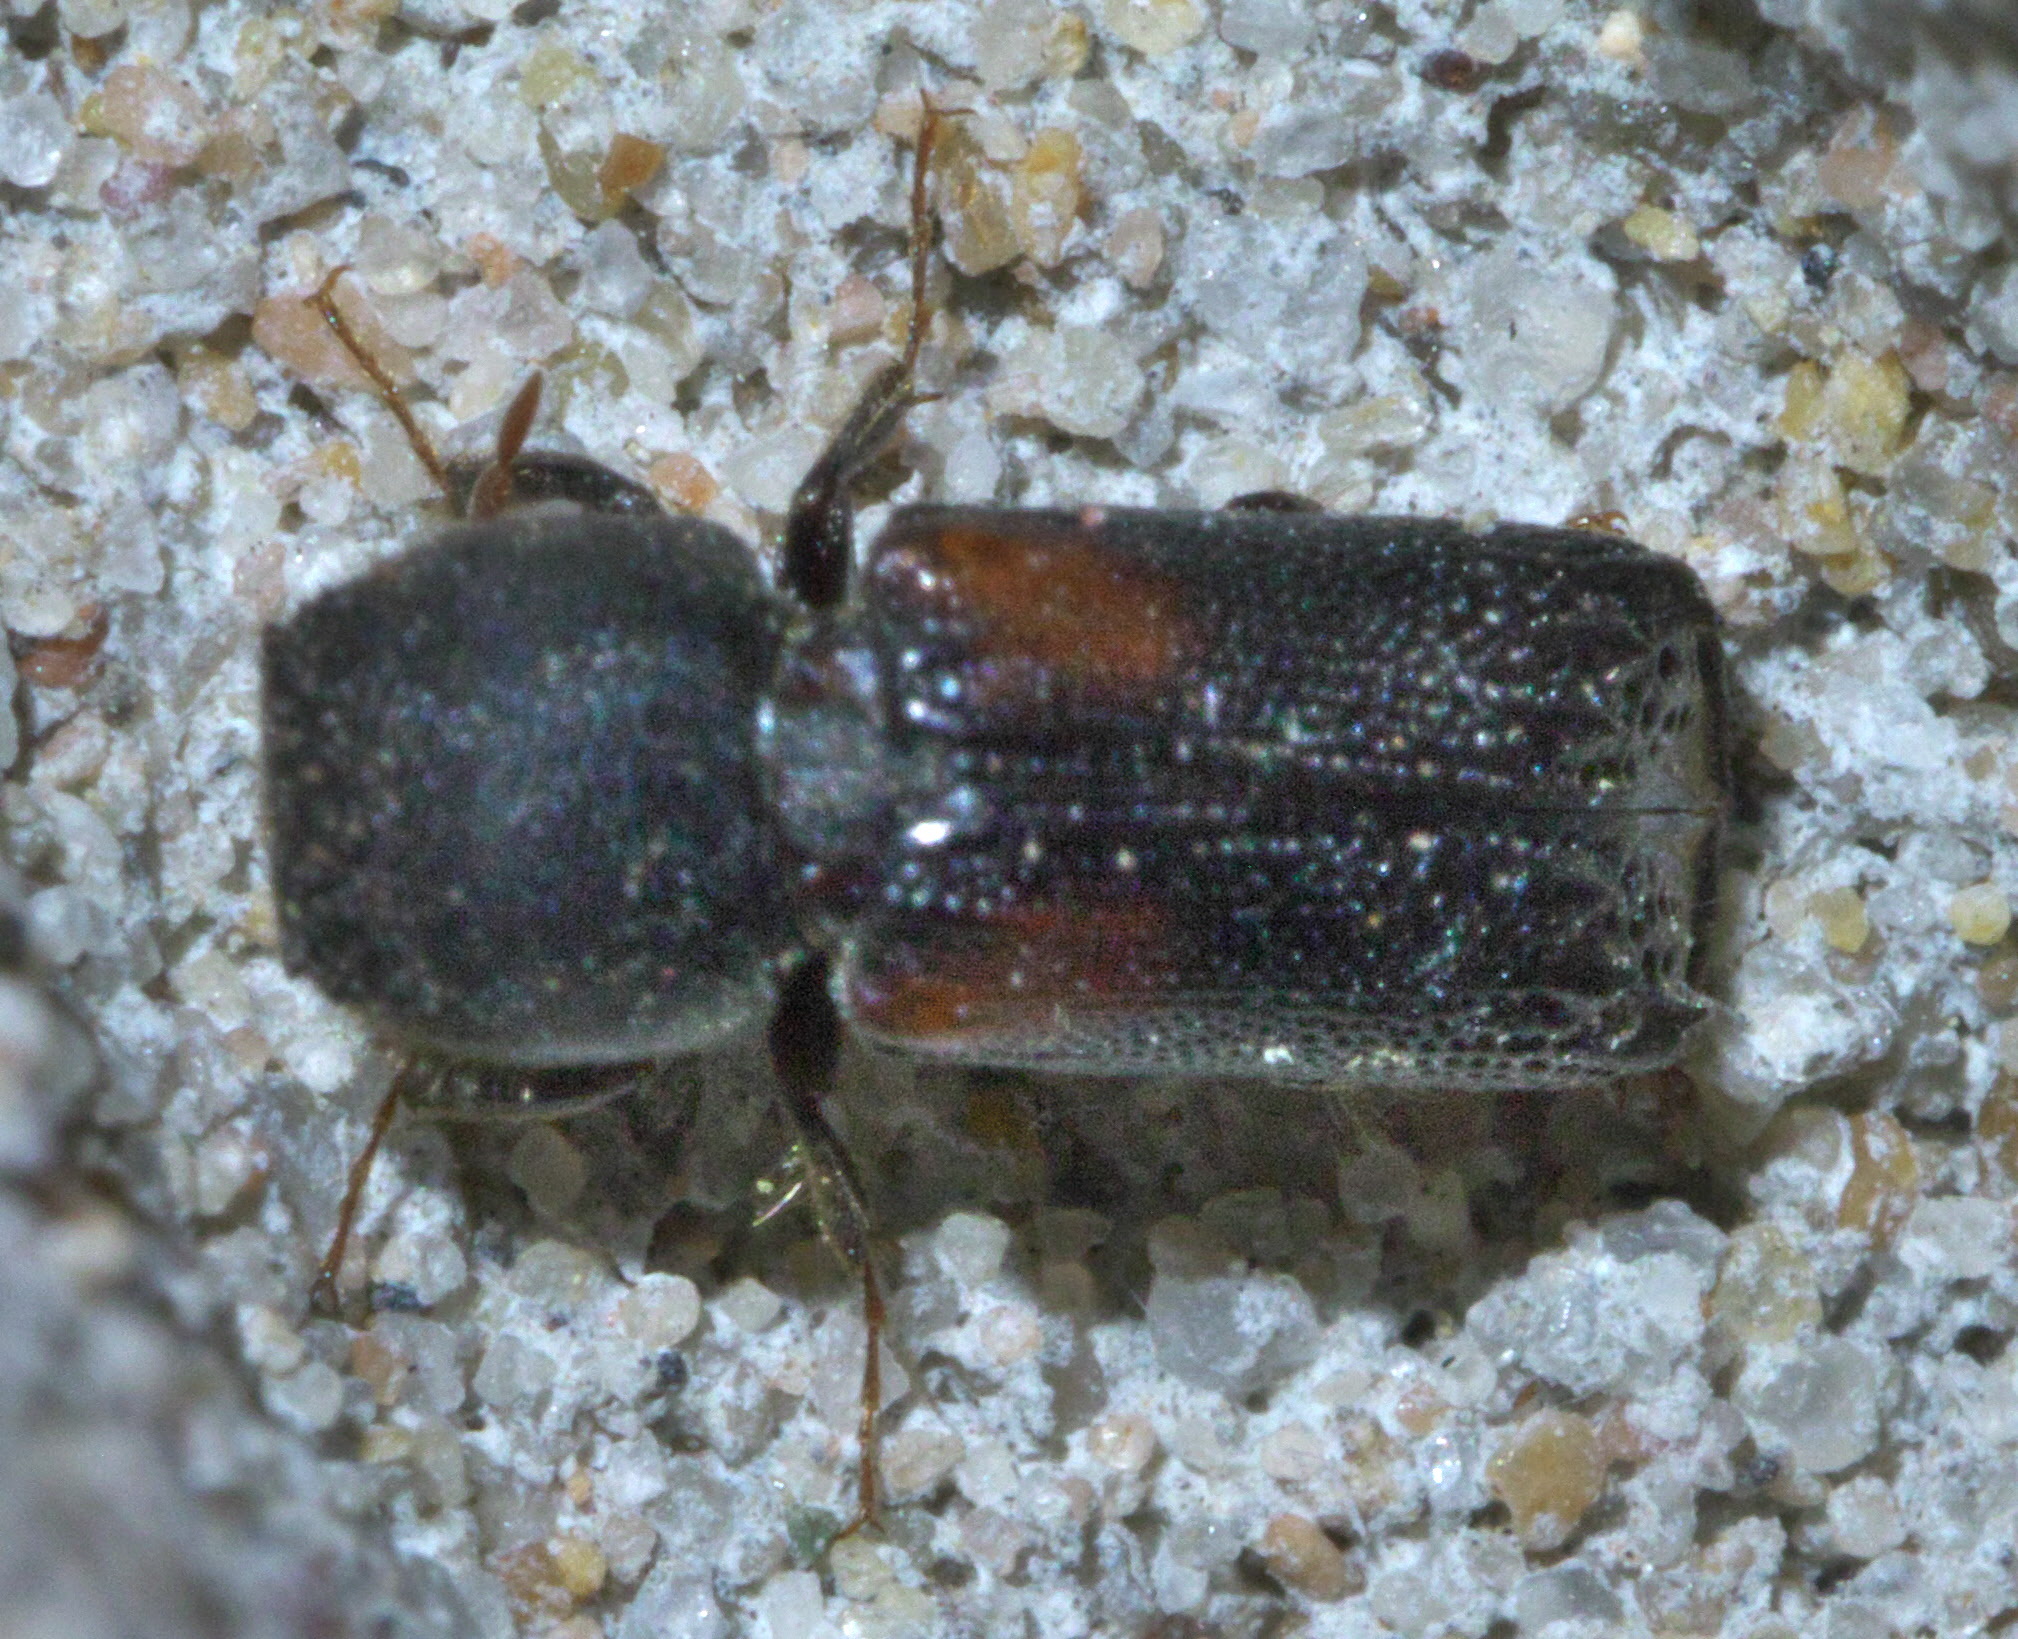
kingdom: Animalia
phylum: Arthropoda
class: Insecta
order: Coleoptera
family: Bostrichidae
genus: Xylobiops
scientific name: Xylobiops basilaris
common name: Red-shouldered bostrichid
